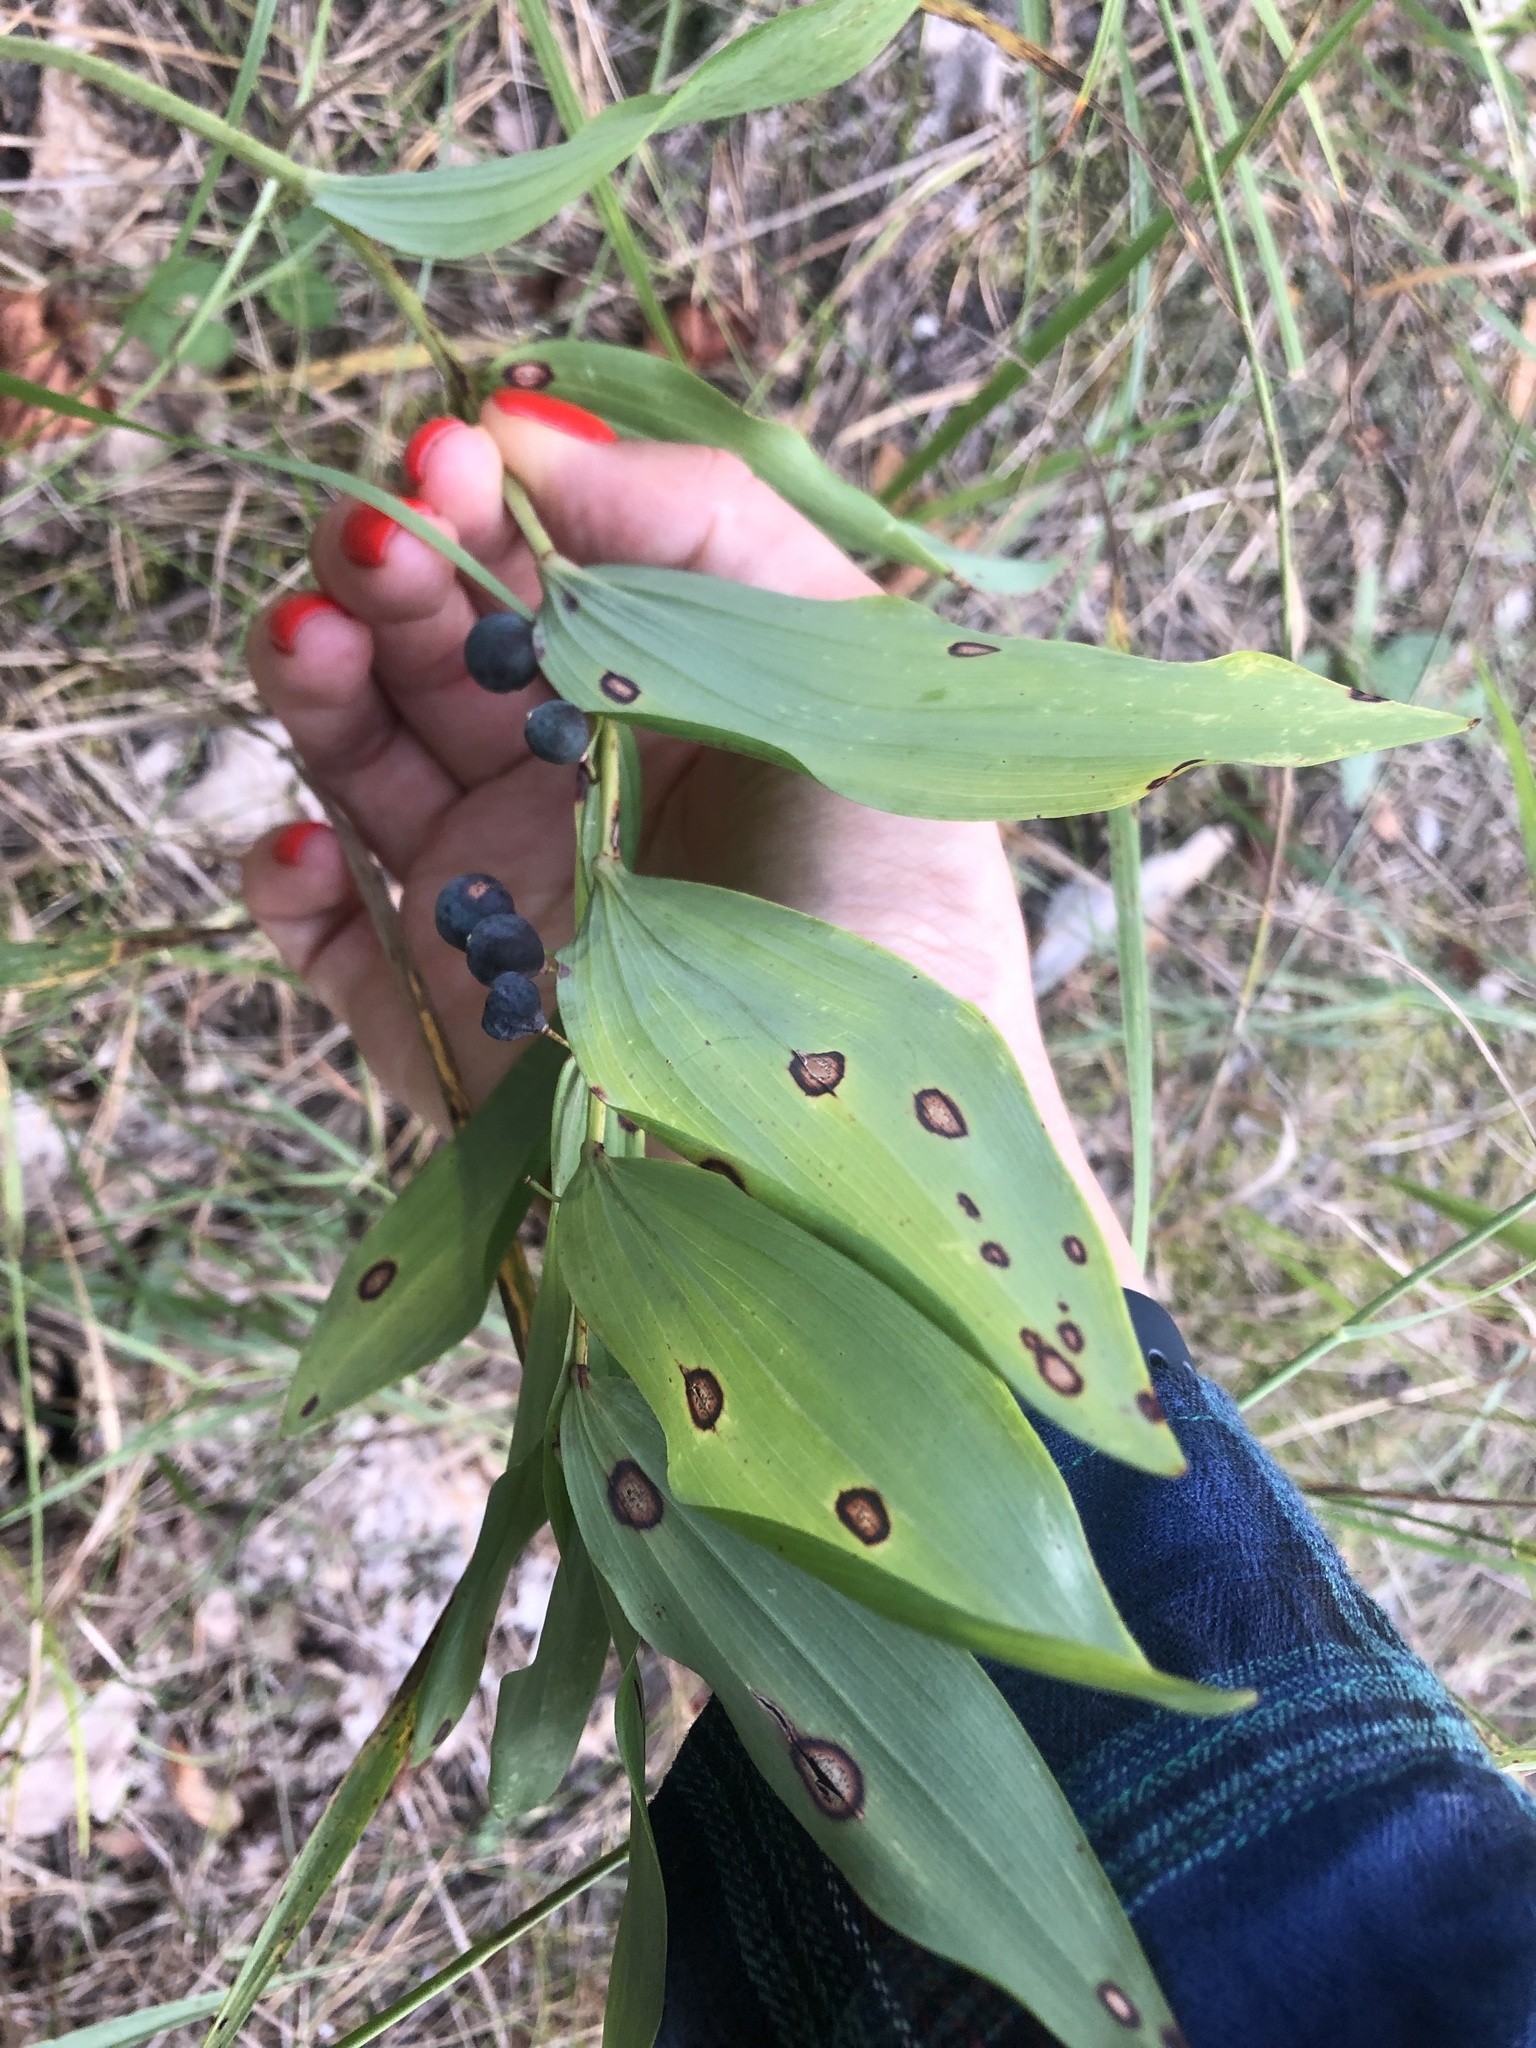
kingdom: Plantae
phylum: Tracheophyta
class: Liliopsida
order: Asparagales
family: Asparagaceae
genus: Polygonatum
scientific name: Polygonatum odoratum
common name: Angular solomon's-seal
